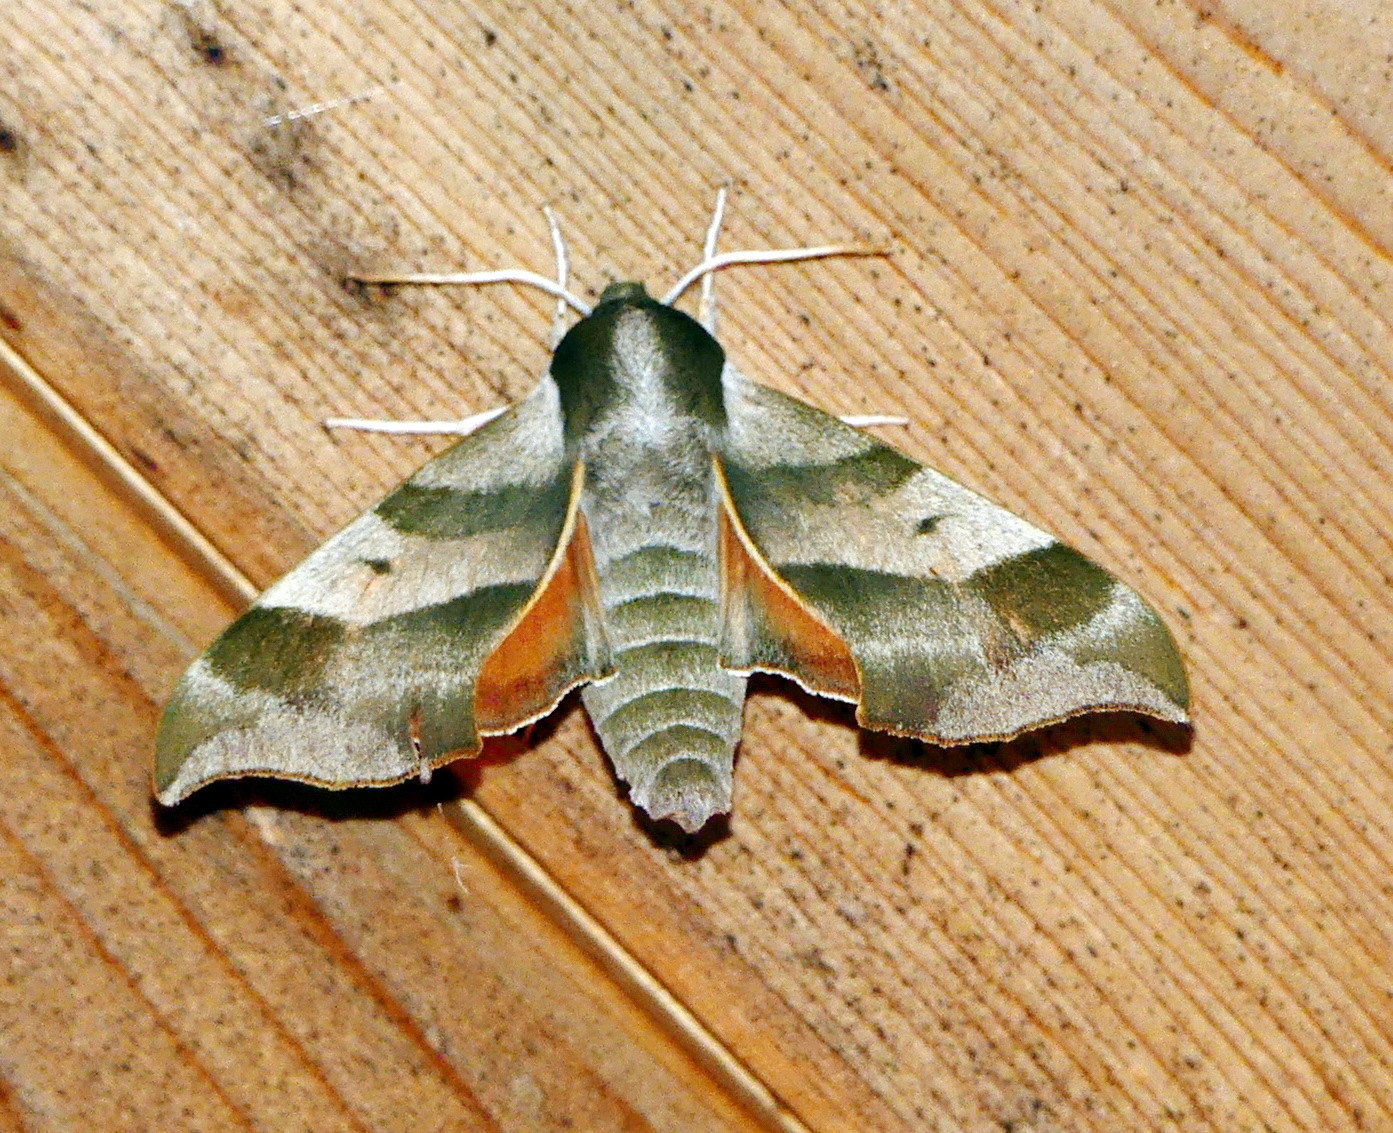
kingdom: Animalia
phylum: Arthropoda
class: Insecta
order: Lepidoptera
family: Sphingidae
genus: Darapsa
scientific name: Darapsa myron
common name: Hog sphinx
